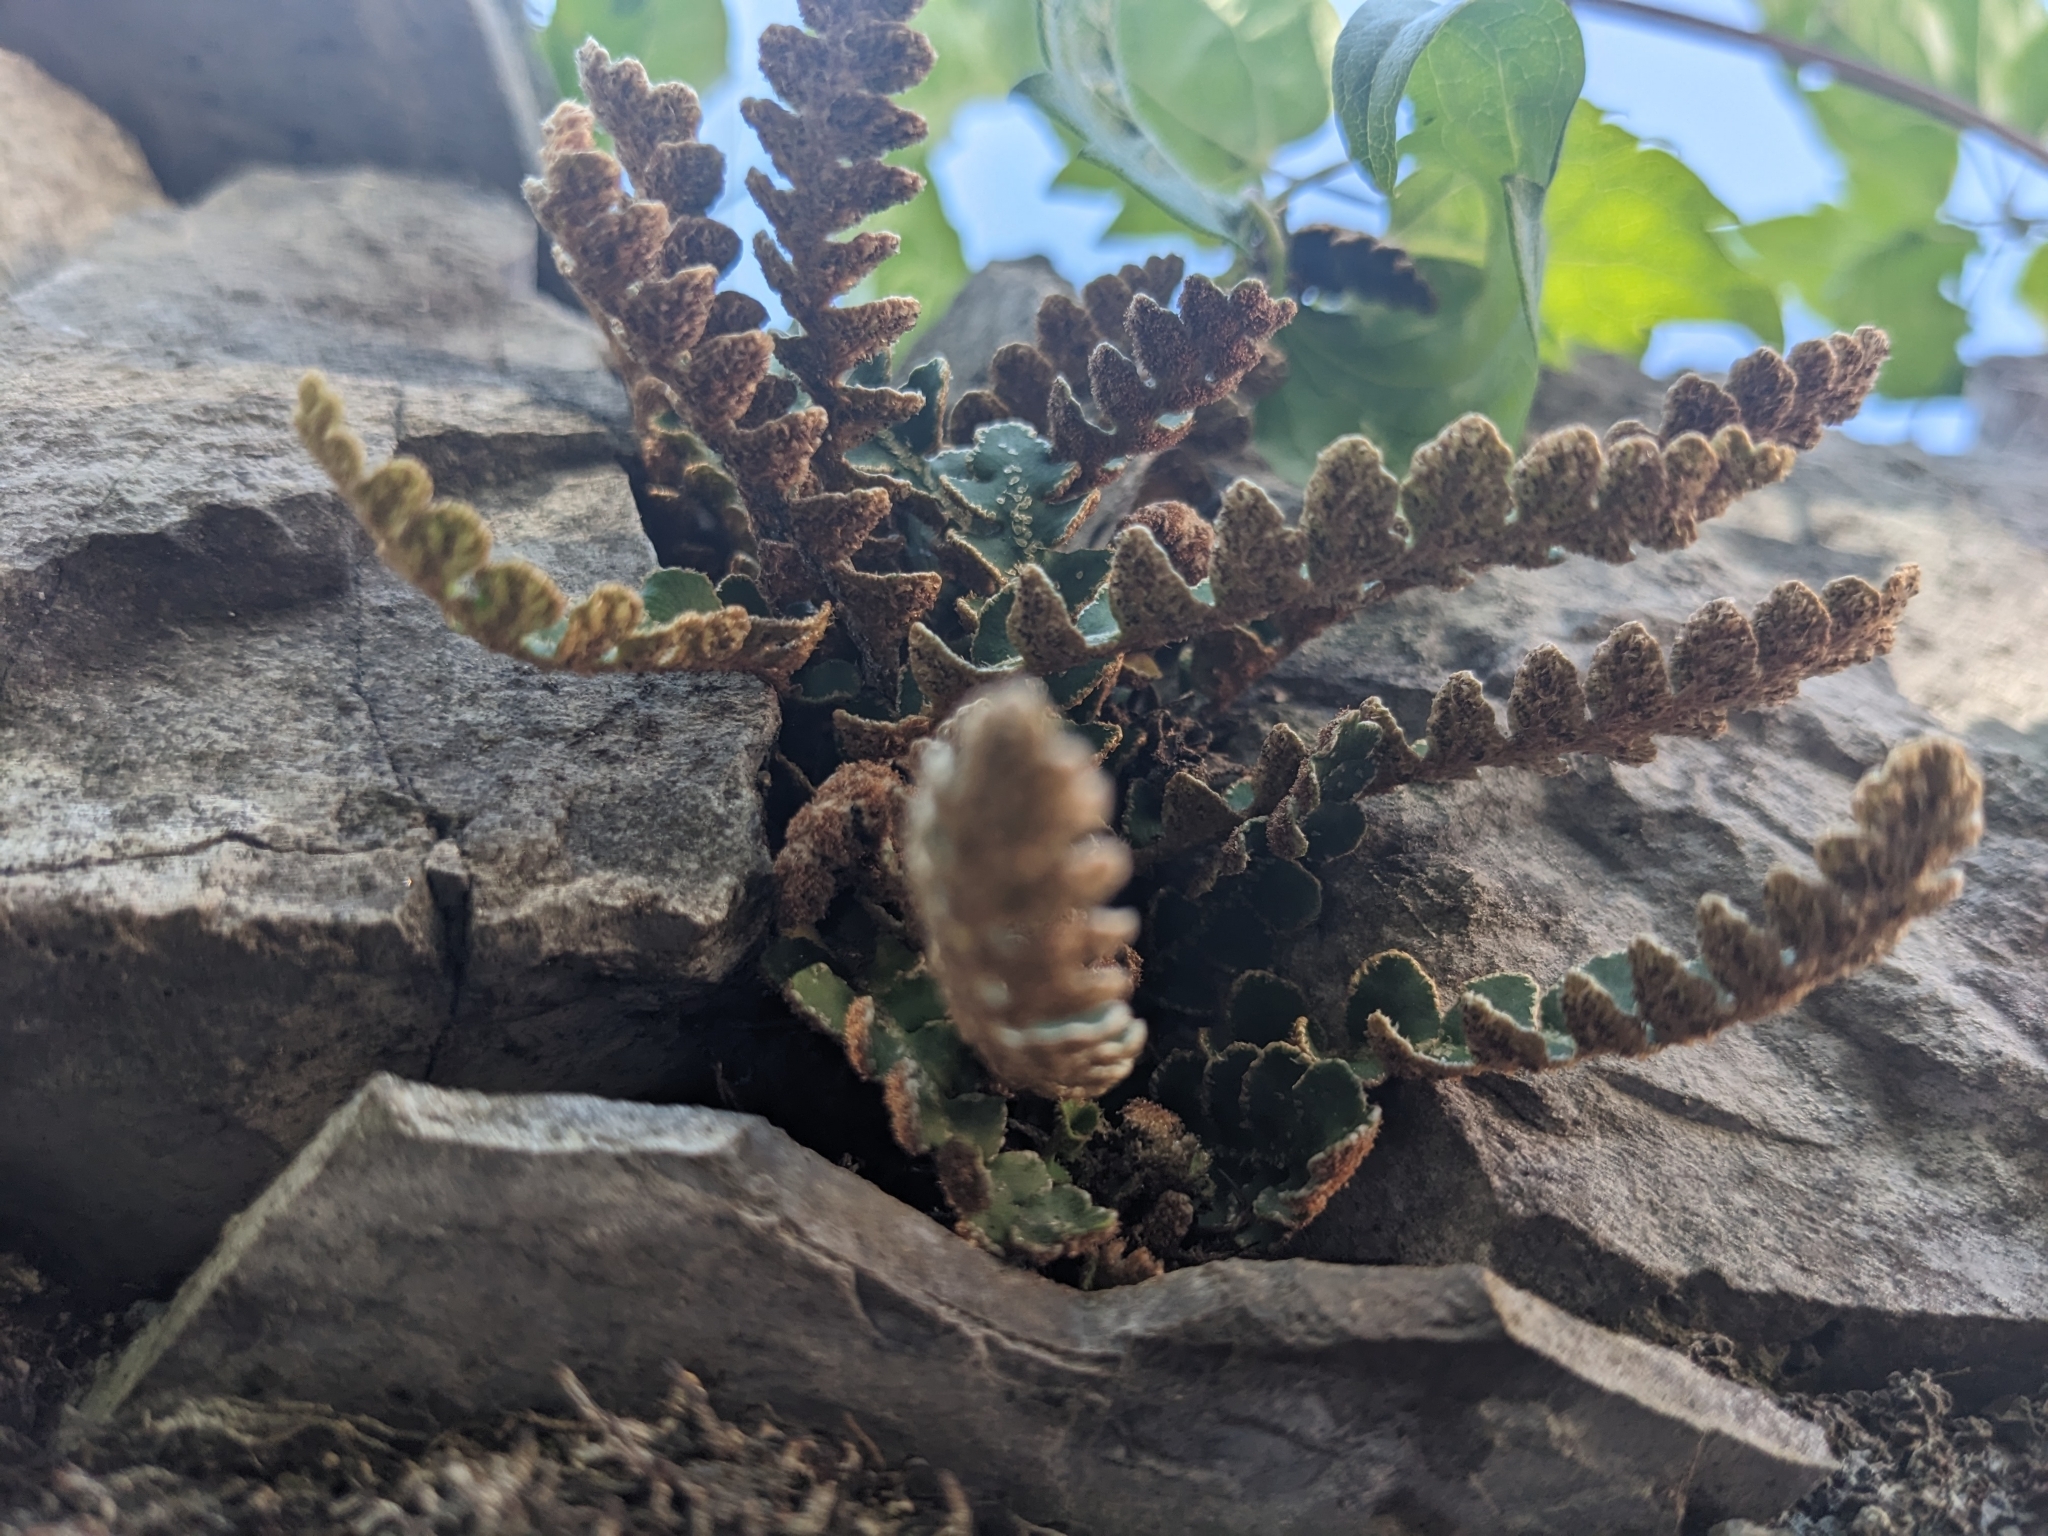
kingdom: Plantae
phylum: Tracheophyta
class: Polypodiopsida
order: Polypodiales
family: Aspleniaceae
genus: Asplenium
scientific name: Asplenium ceterach
